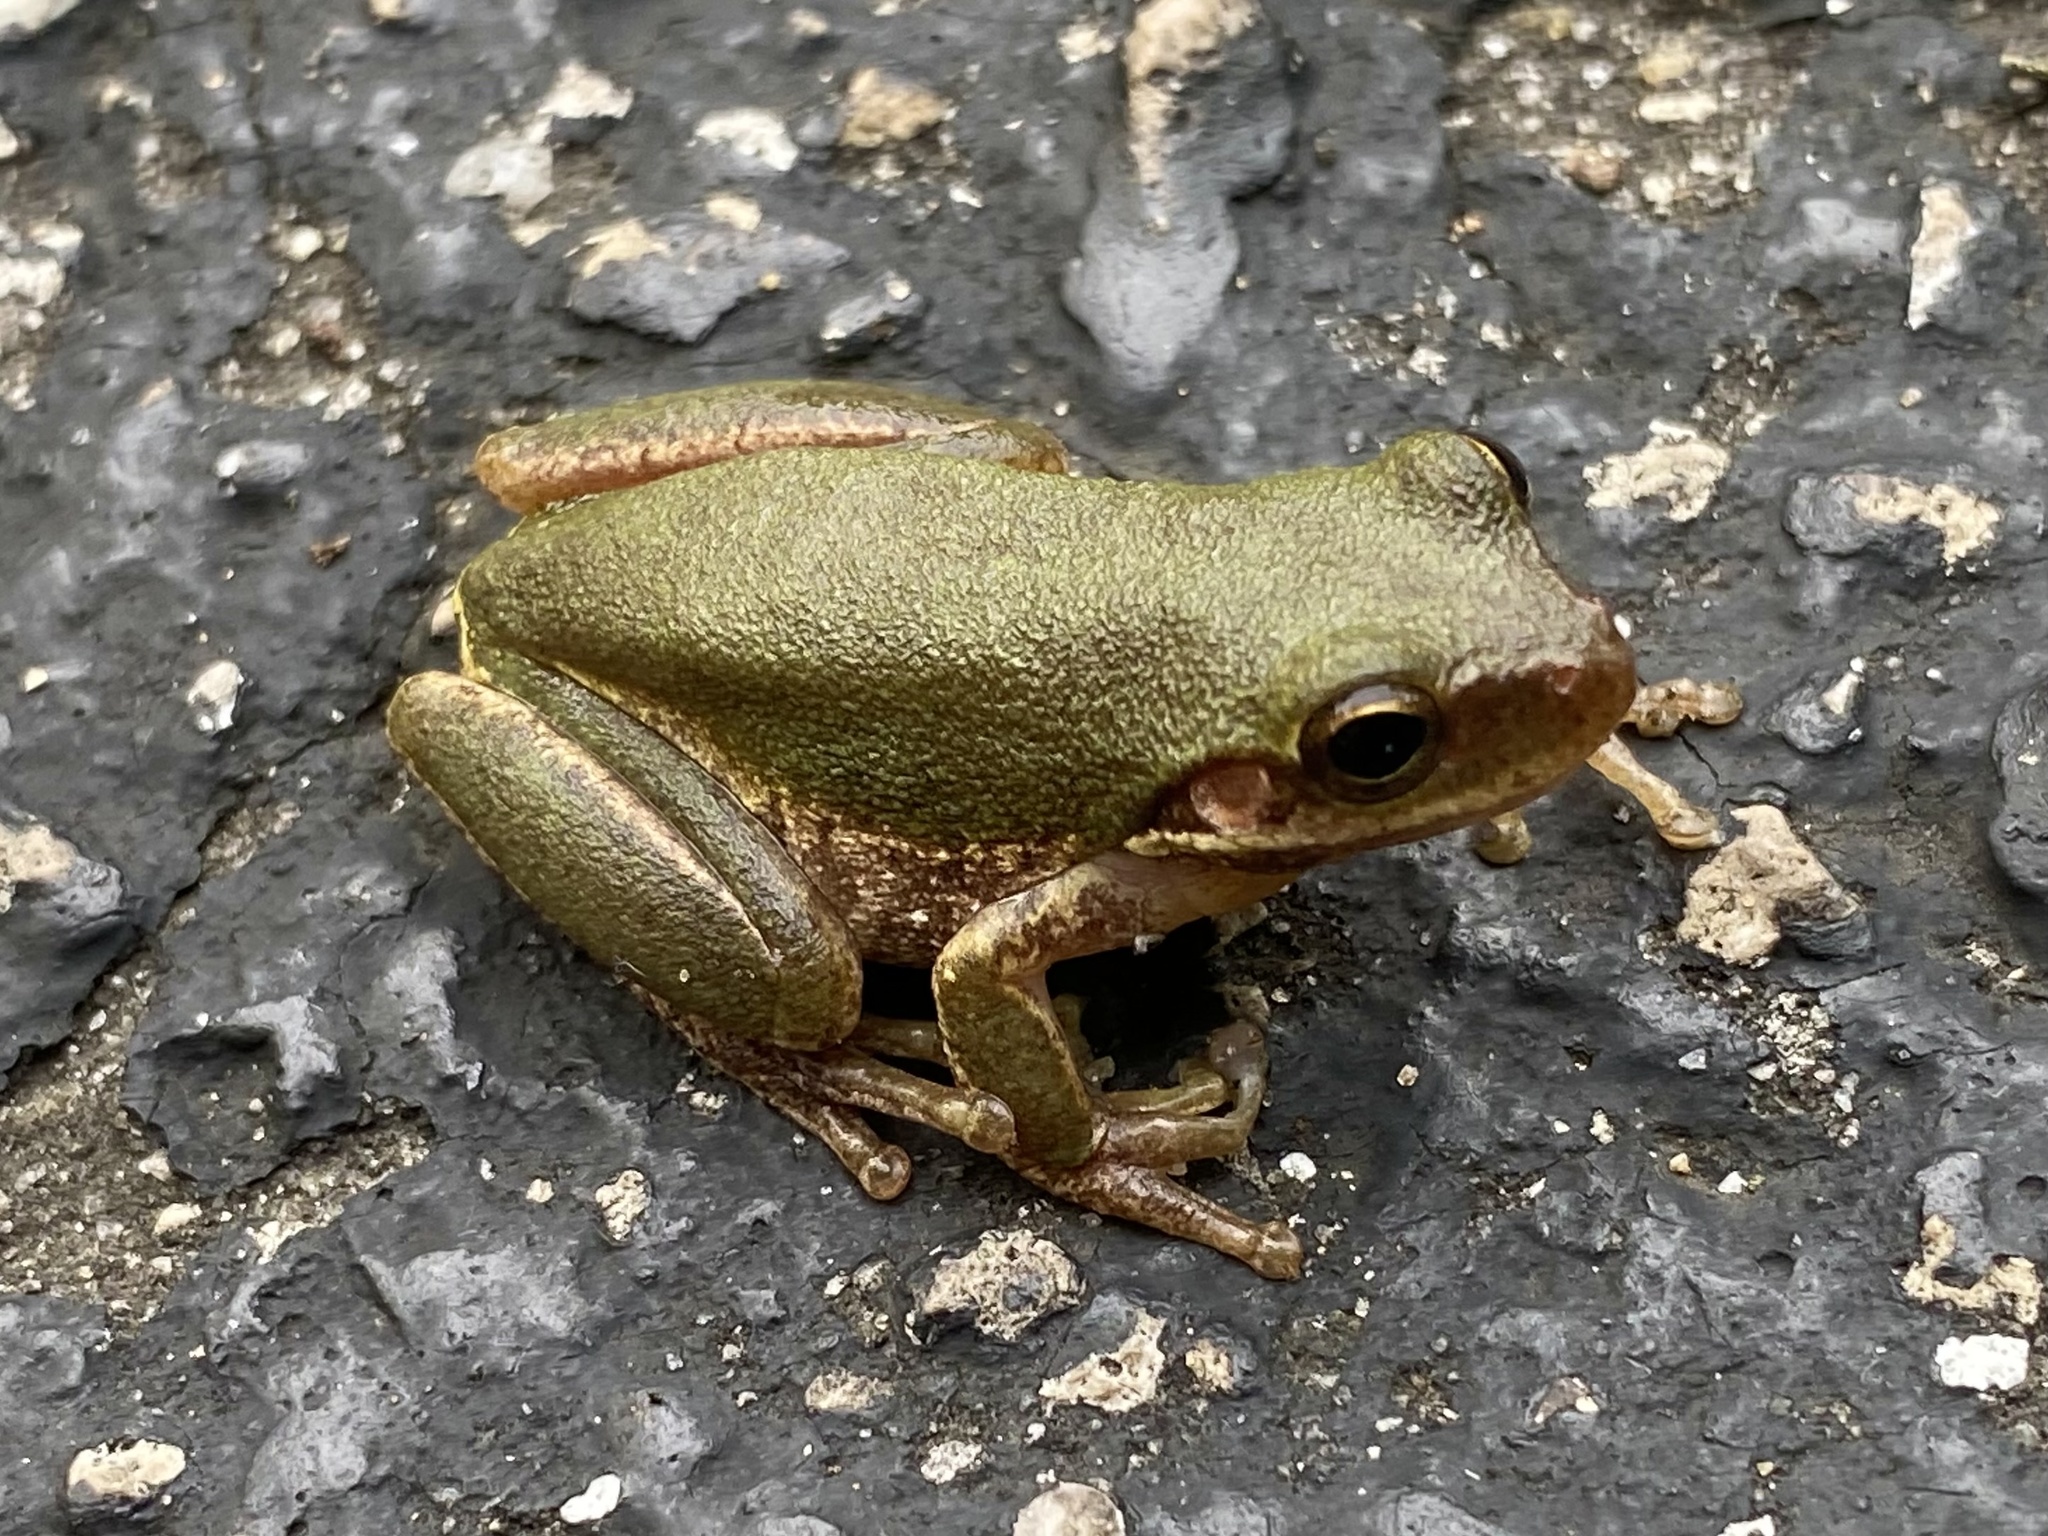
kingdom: Animalia
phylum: Chordata
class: Amphibia
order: Anura
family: Hylidae
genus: Dryophytes
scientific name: Dryophytes squirellus
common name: Squirrel treefrog
